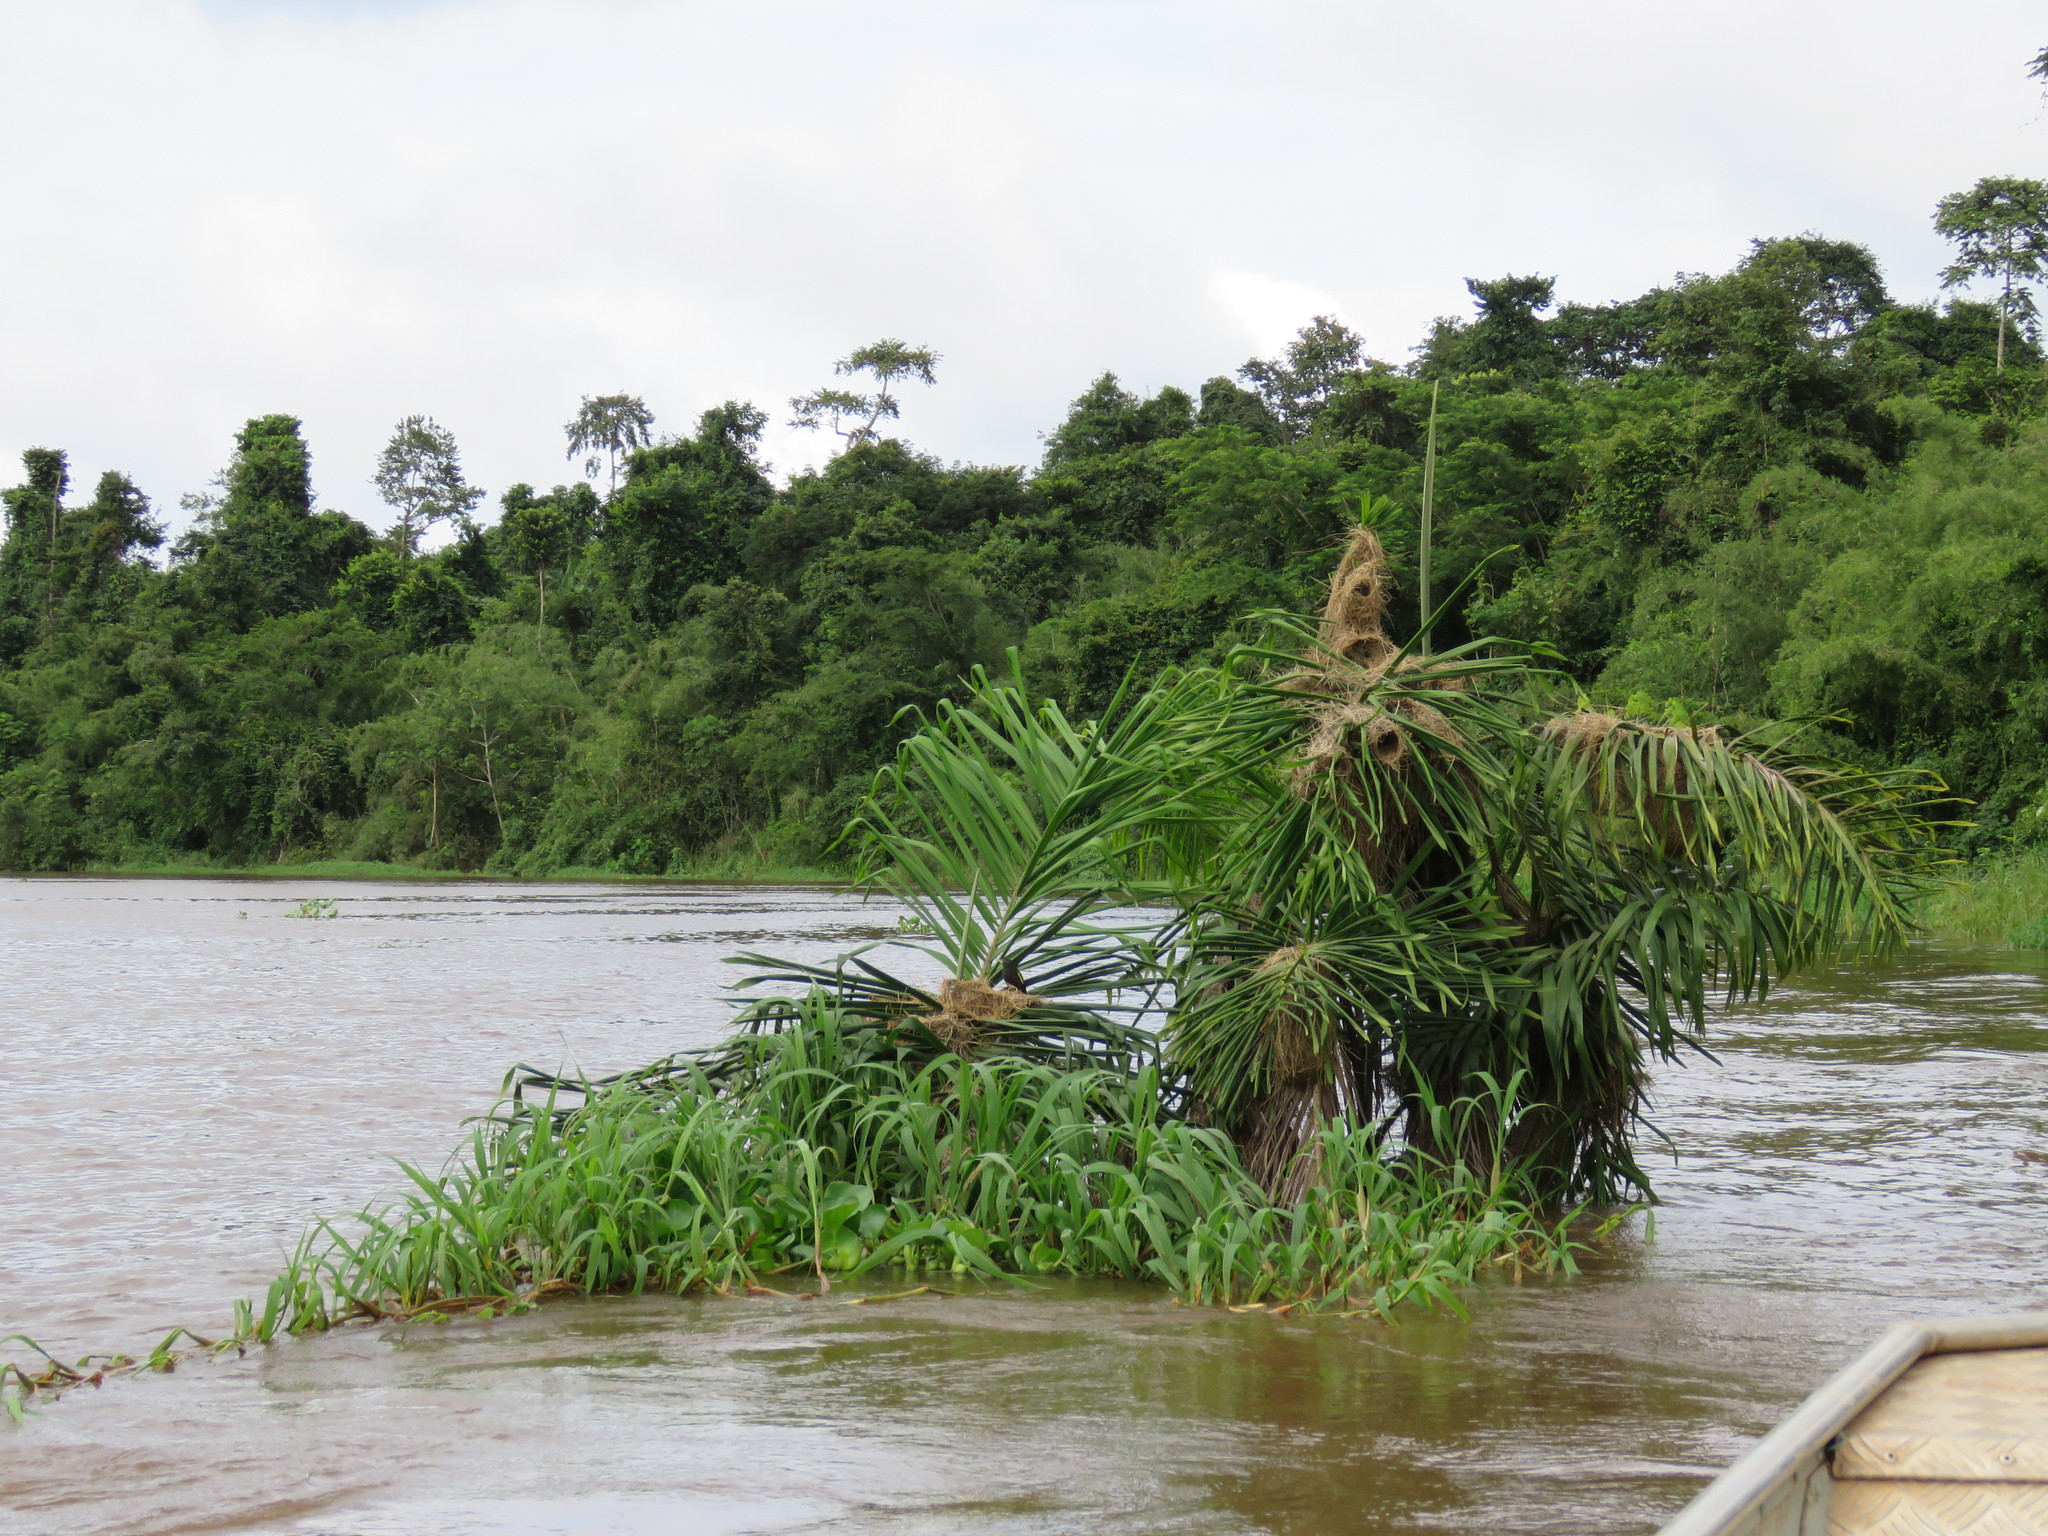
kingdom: Animalia
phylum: Chordata
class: Aves
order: Passeriformes
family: Icteridae
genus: Cacicus
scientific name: Cacicus cela
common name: Yellow-rumped cacique
